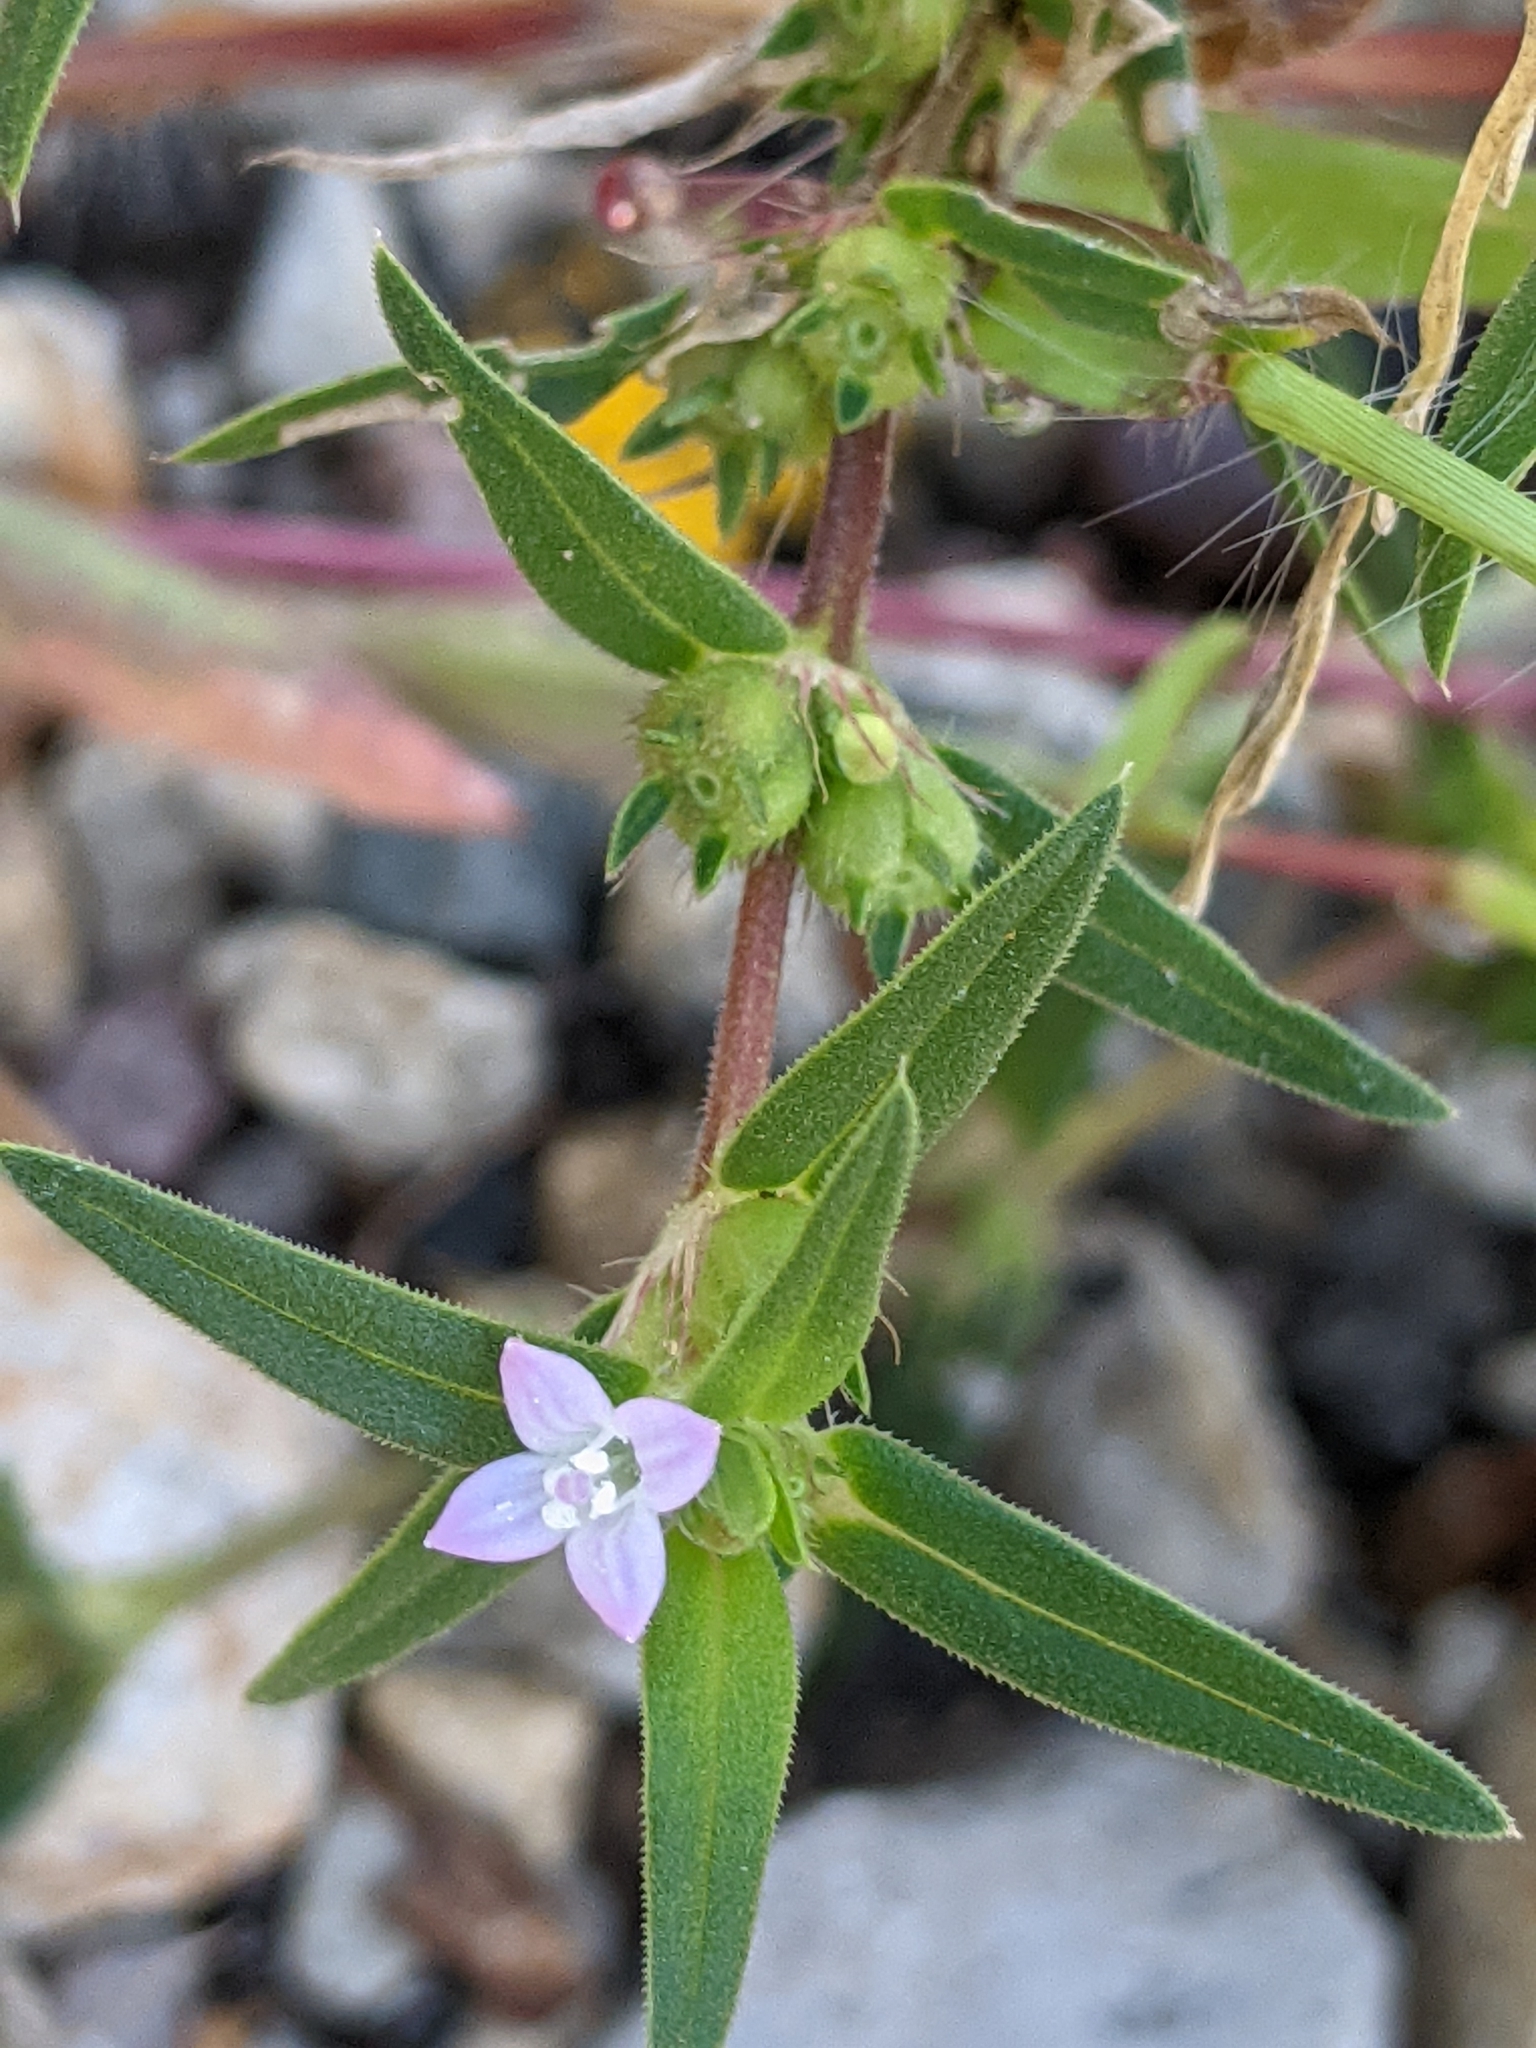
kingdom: Plantae
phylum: Tracheophyta
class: Magnoliopsida
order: Gentianales
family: Rubiaceae
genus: Hexasepalum
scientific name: Hexasepalum teres
